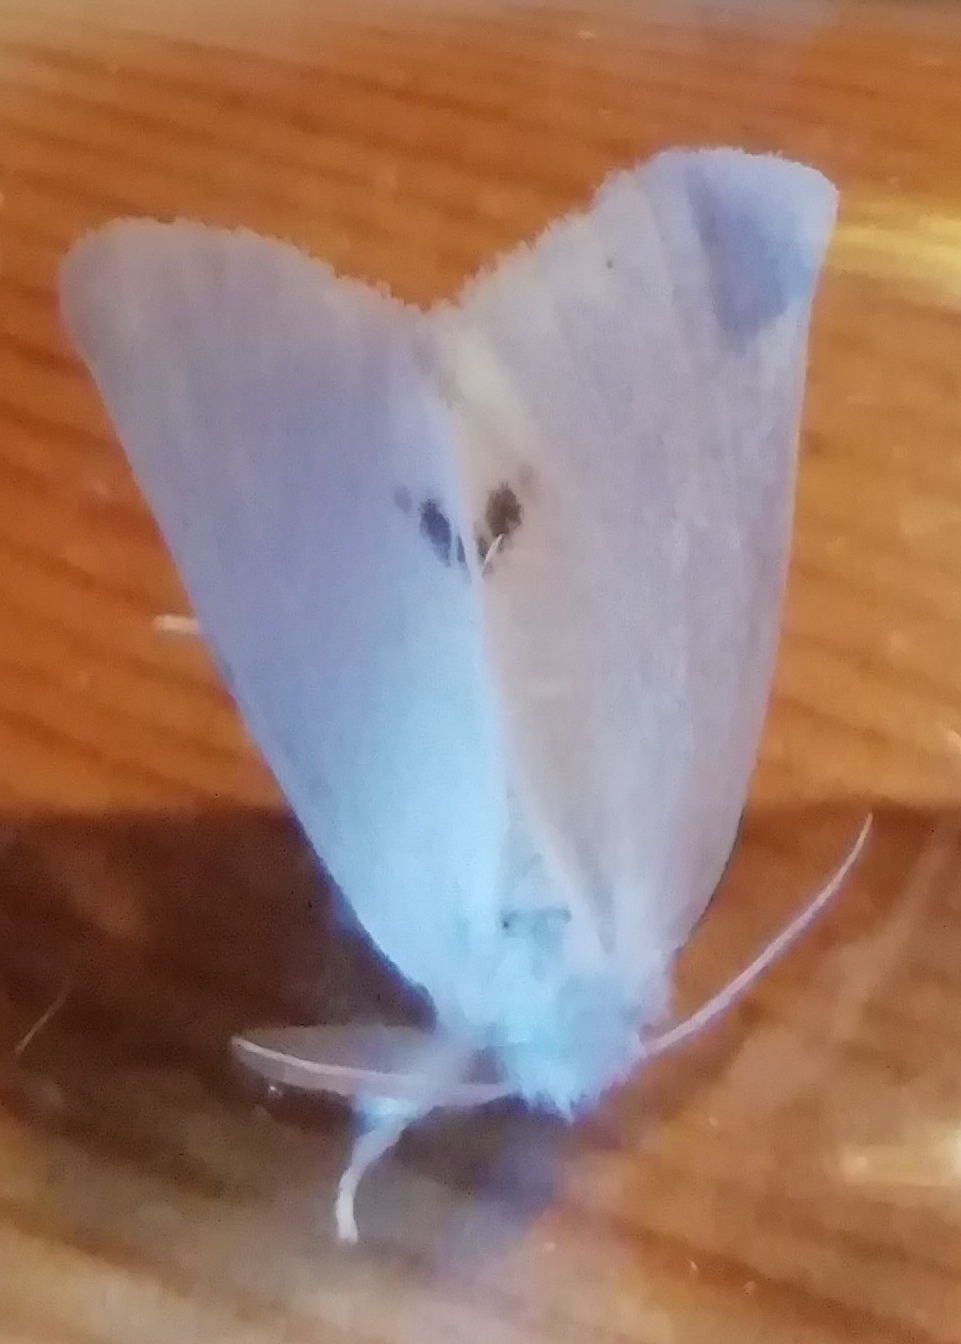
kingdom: Animalia
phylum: Arthropoda
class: Insecta
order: Lepidoptera
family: Erebidae
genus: Sphrageidus
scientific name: Sphrageidus similis
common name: Yellow-tail
